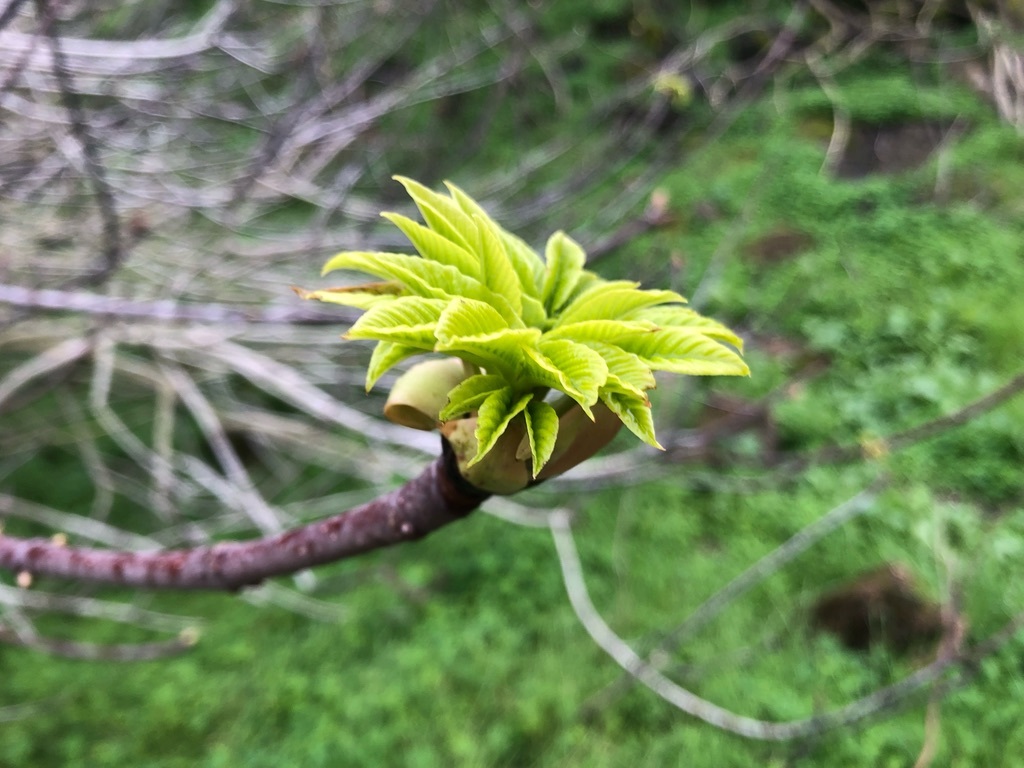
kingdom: Plantae
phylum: Tracheophyta
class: Magnoliopsida
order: Sapindales
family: Sapindaceae
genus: Aesculus
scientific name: Aesculus californica
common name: California buckeye
